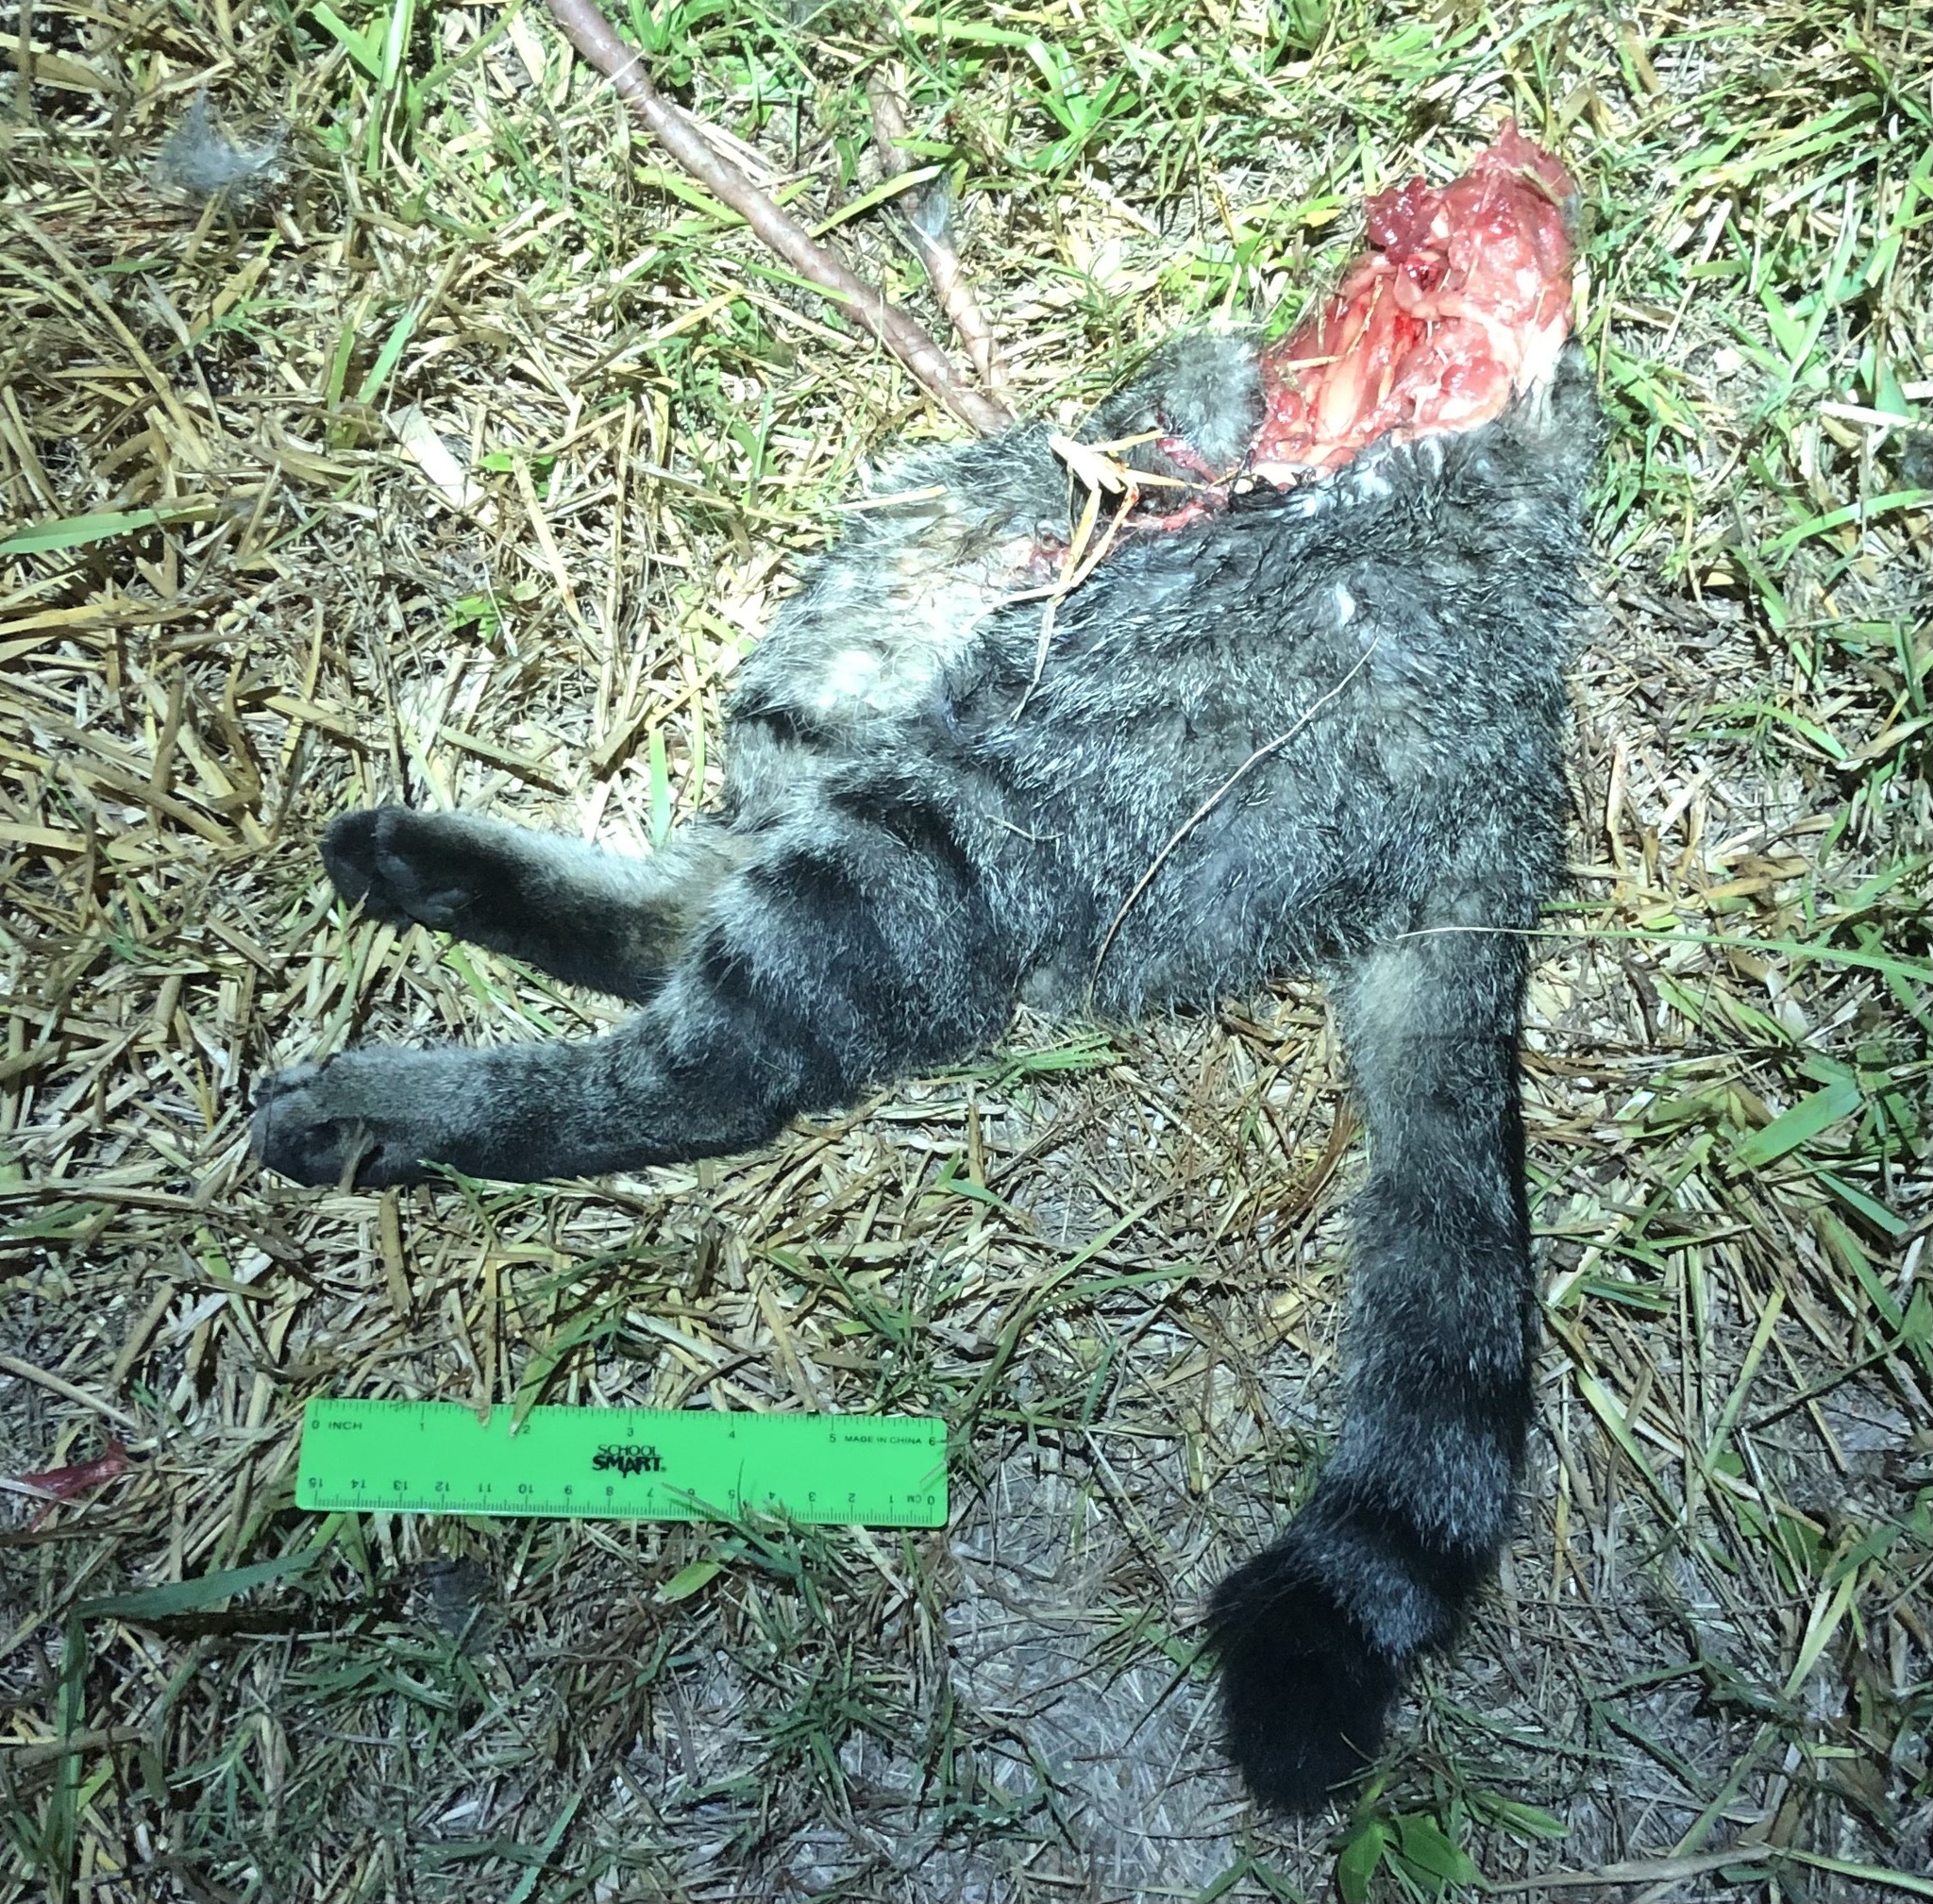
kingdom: Animalia
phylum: Chordata
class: Mammalia
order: Carnivora
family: Felidae
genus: Felis
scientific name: Felis catus
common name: Domestic cat
